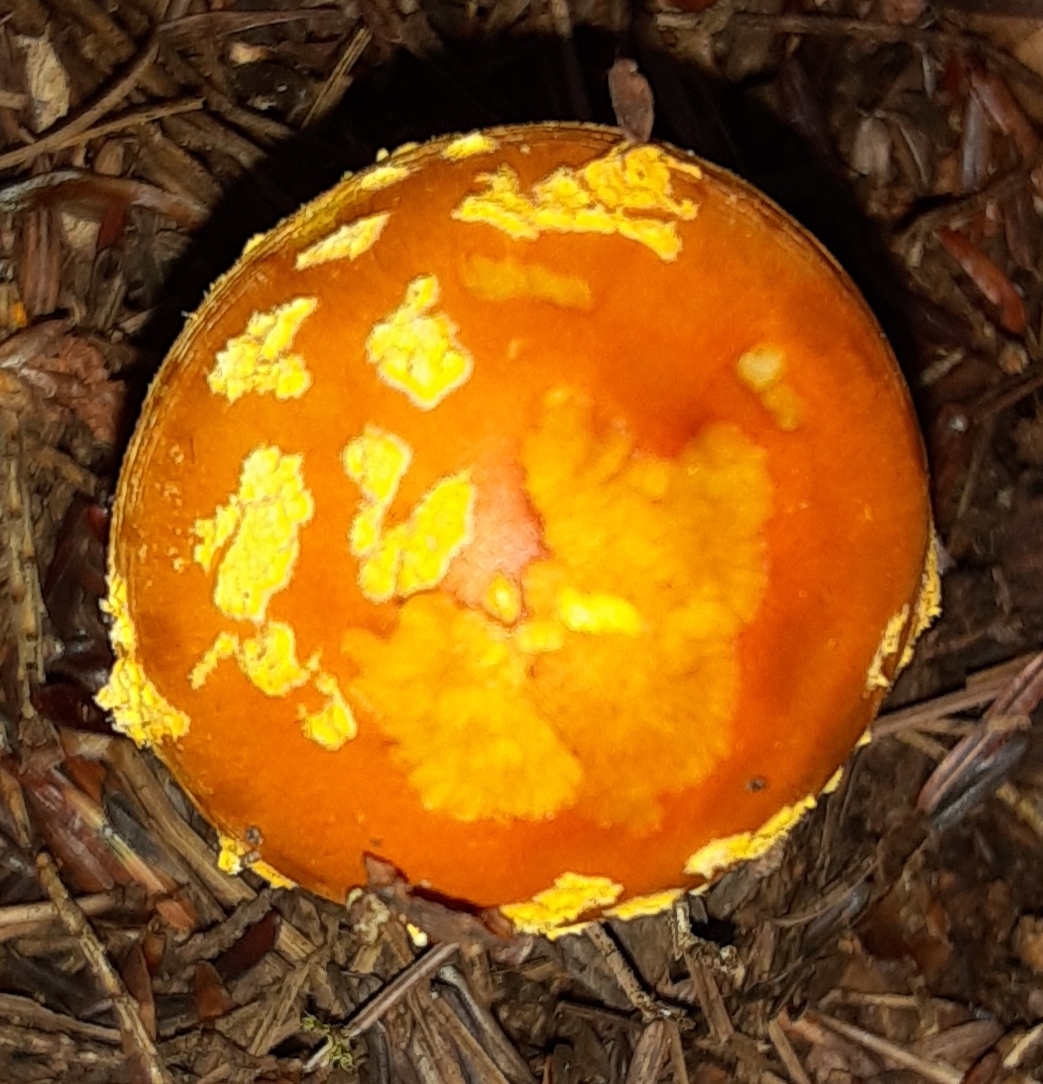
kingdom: Fungi
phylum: Basidiomycota
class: Agaricomycetes
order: Agaricales
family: Amanitaceae
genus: Amanita
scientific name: Amanita flavoconia
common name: Yellow patches
